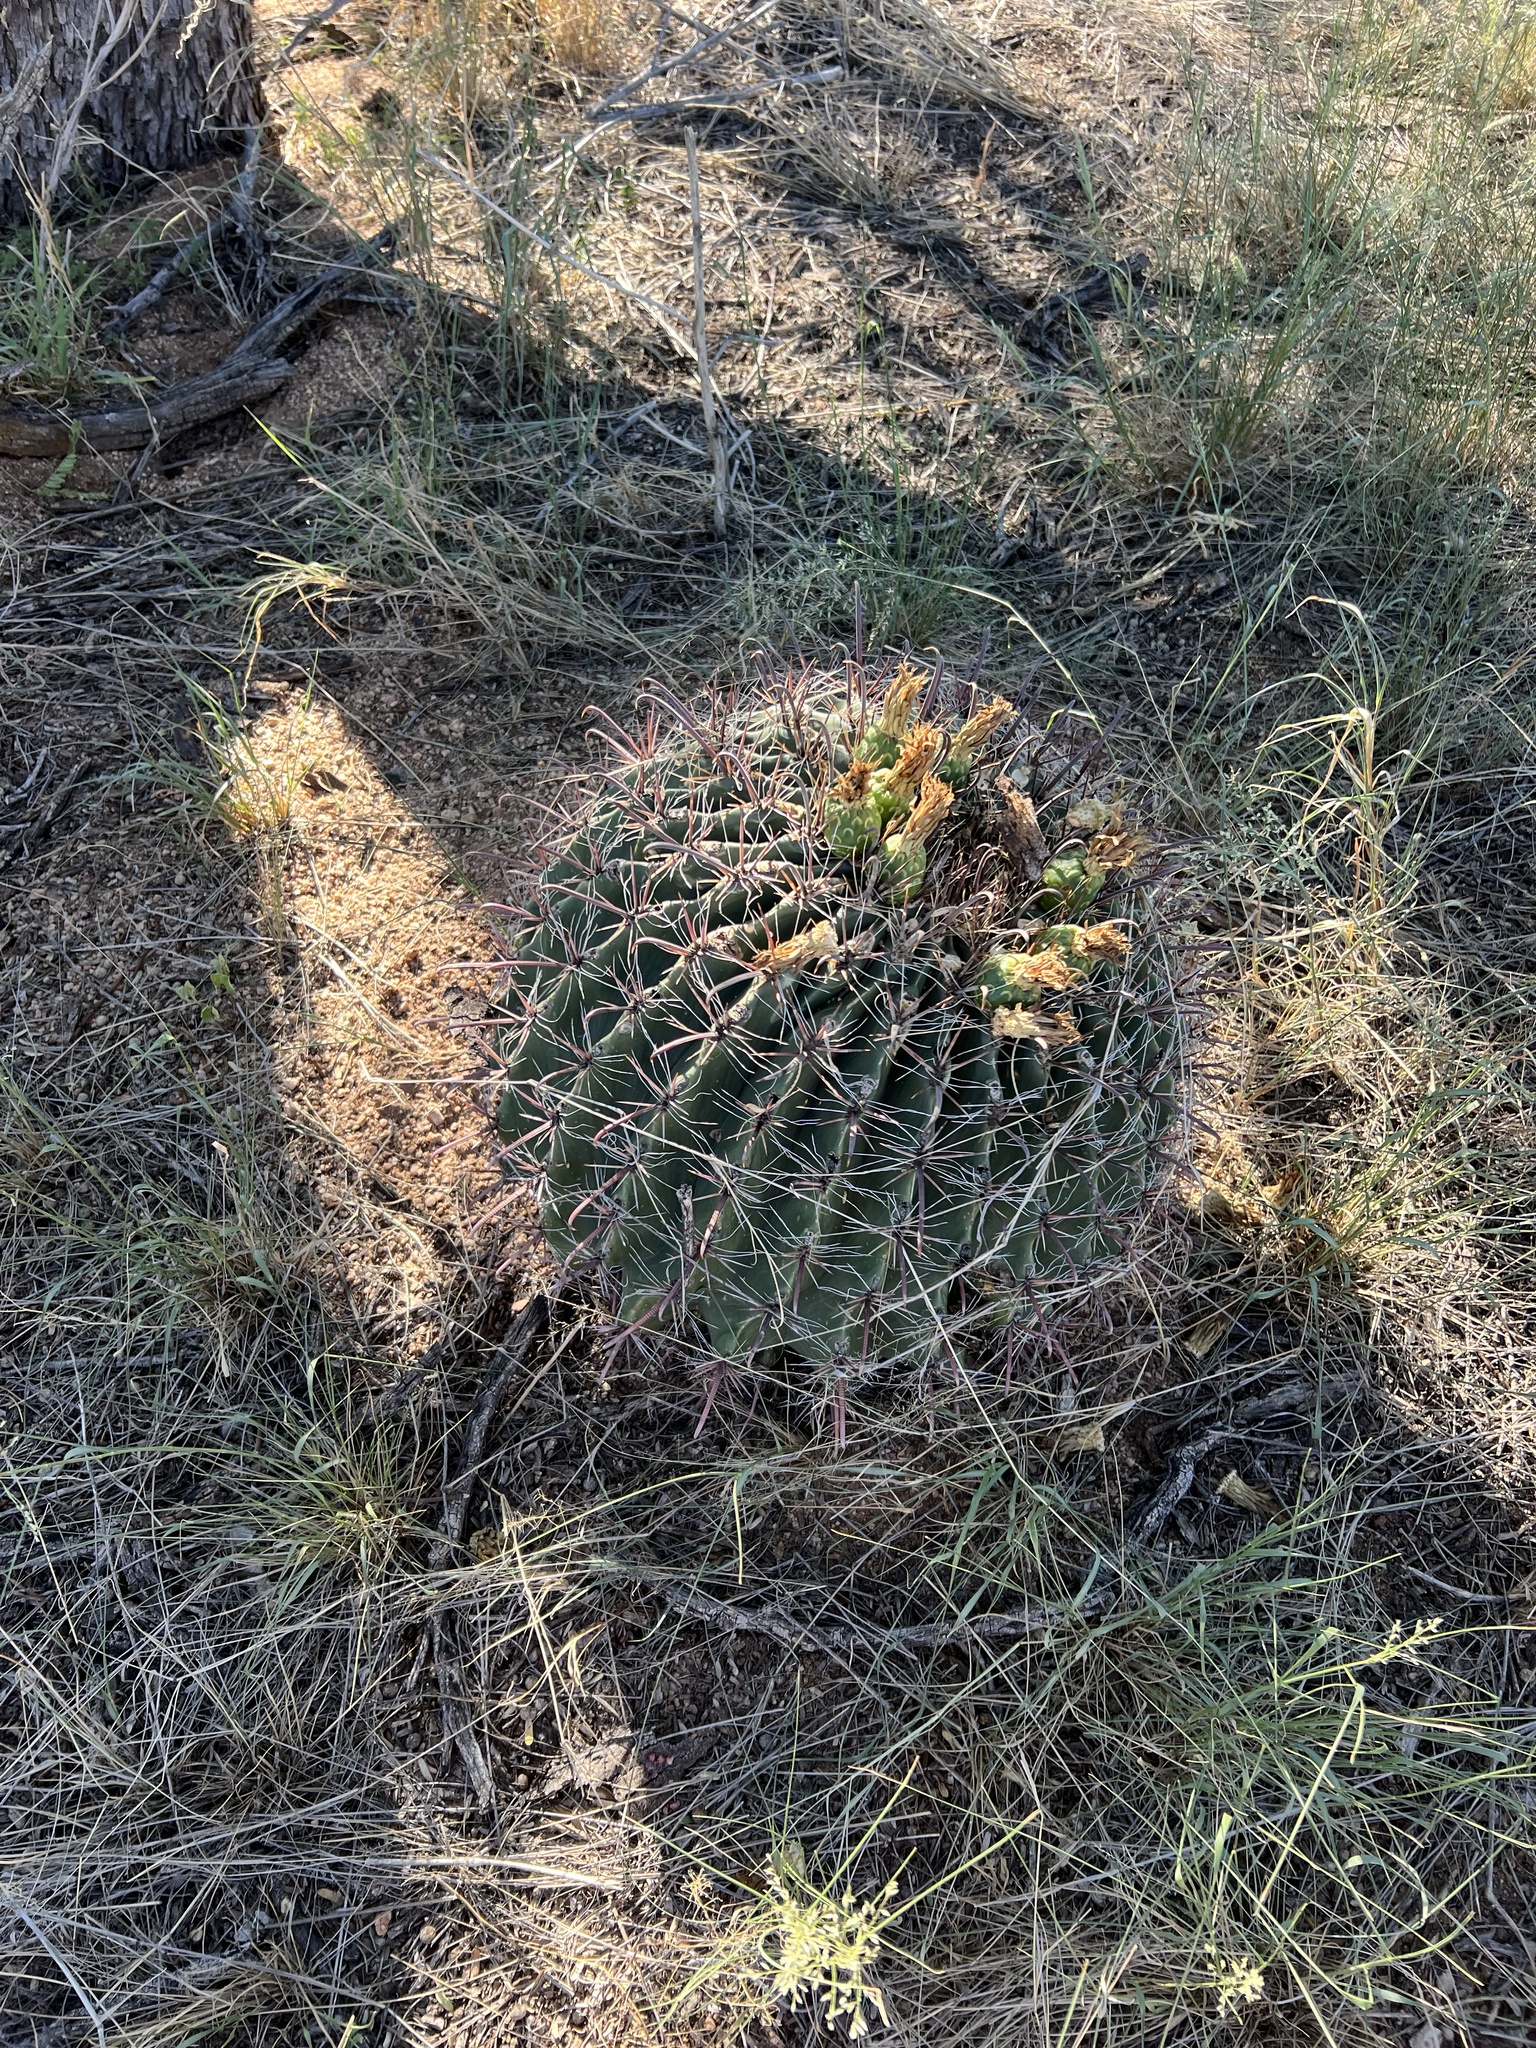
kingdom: Plantae
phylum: Tracheophyta
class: Magnoliopsida
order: Caryophyllales
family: Cactaceae
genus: Ferocactus
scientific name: Ferocactus wislizeni
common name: Candy barrel cactus
